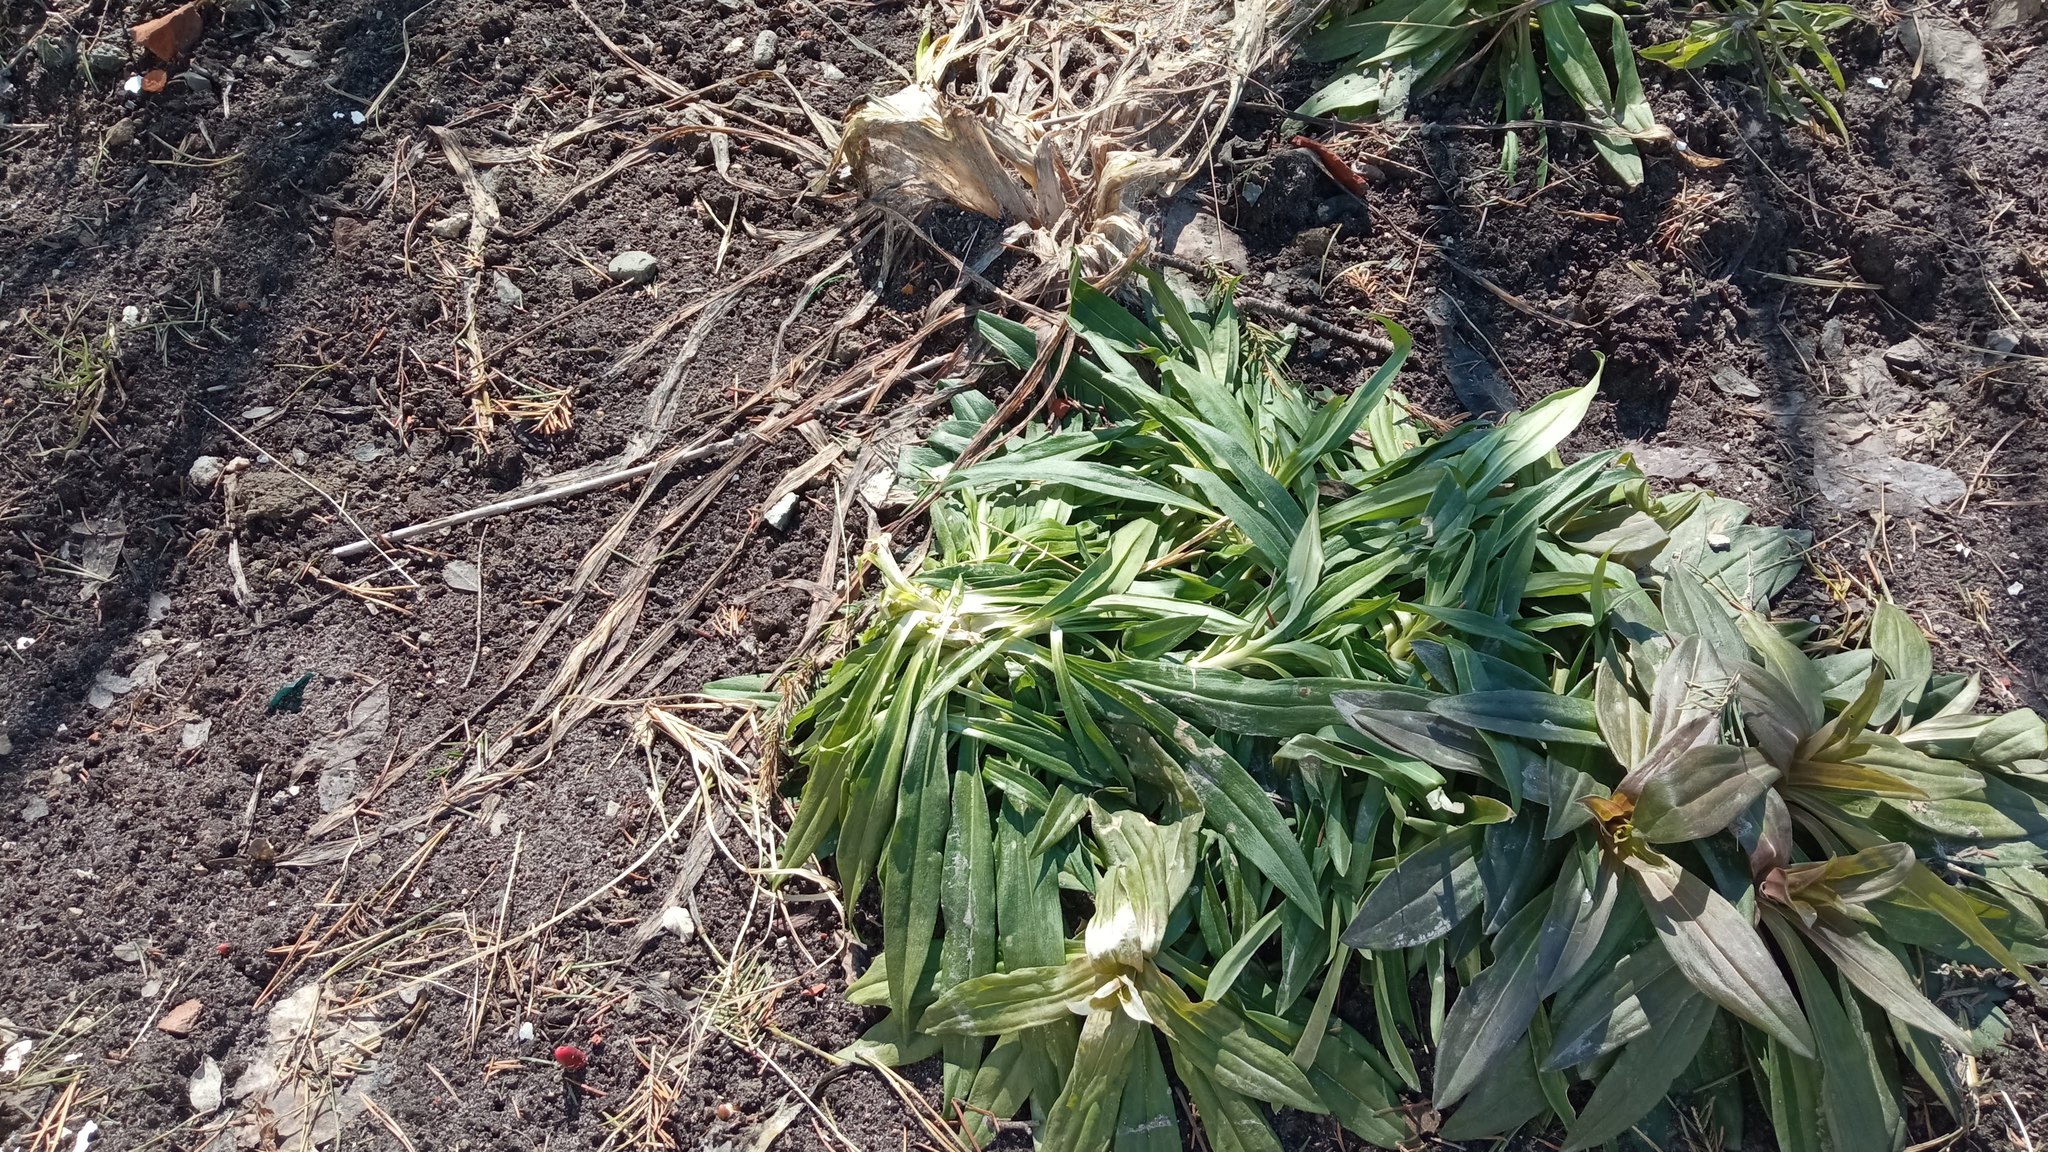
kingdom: Plantae
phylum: Tracheophyta
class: Magnoliopsida
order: Caryophyllales
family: Caryophyllaceae
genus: Dianthus
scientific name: Dianthus barbatus
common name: Sweet-william
